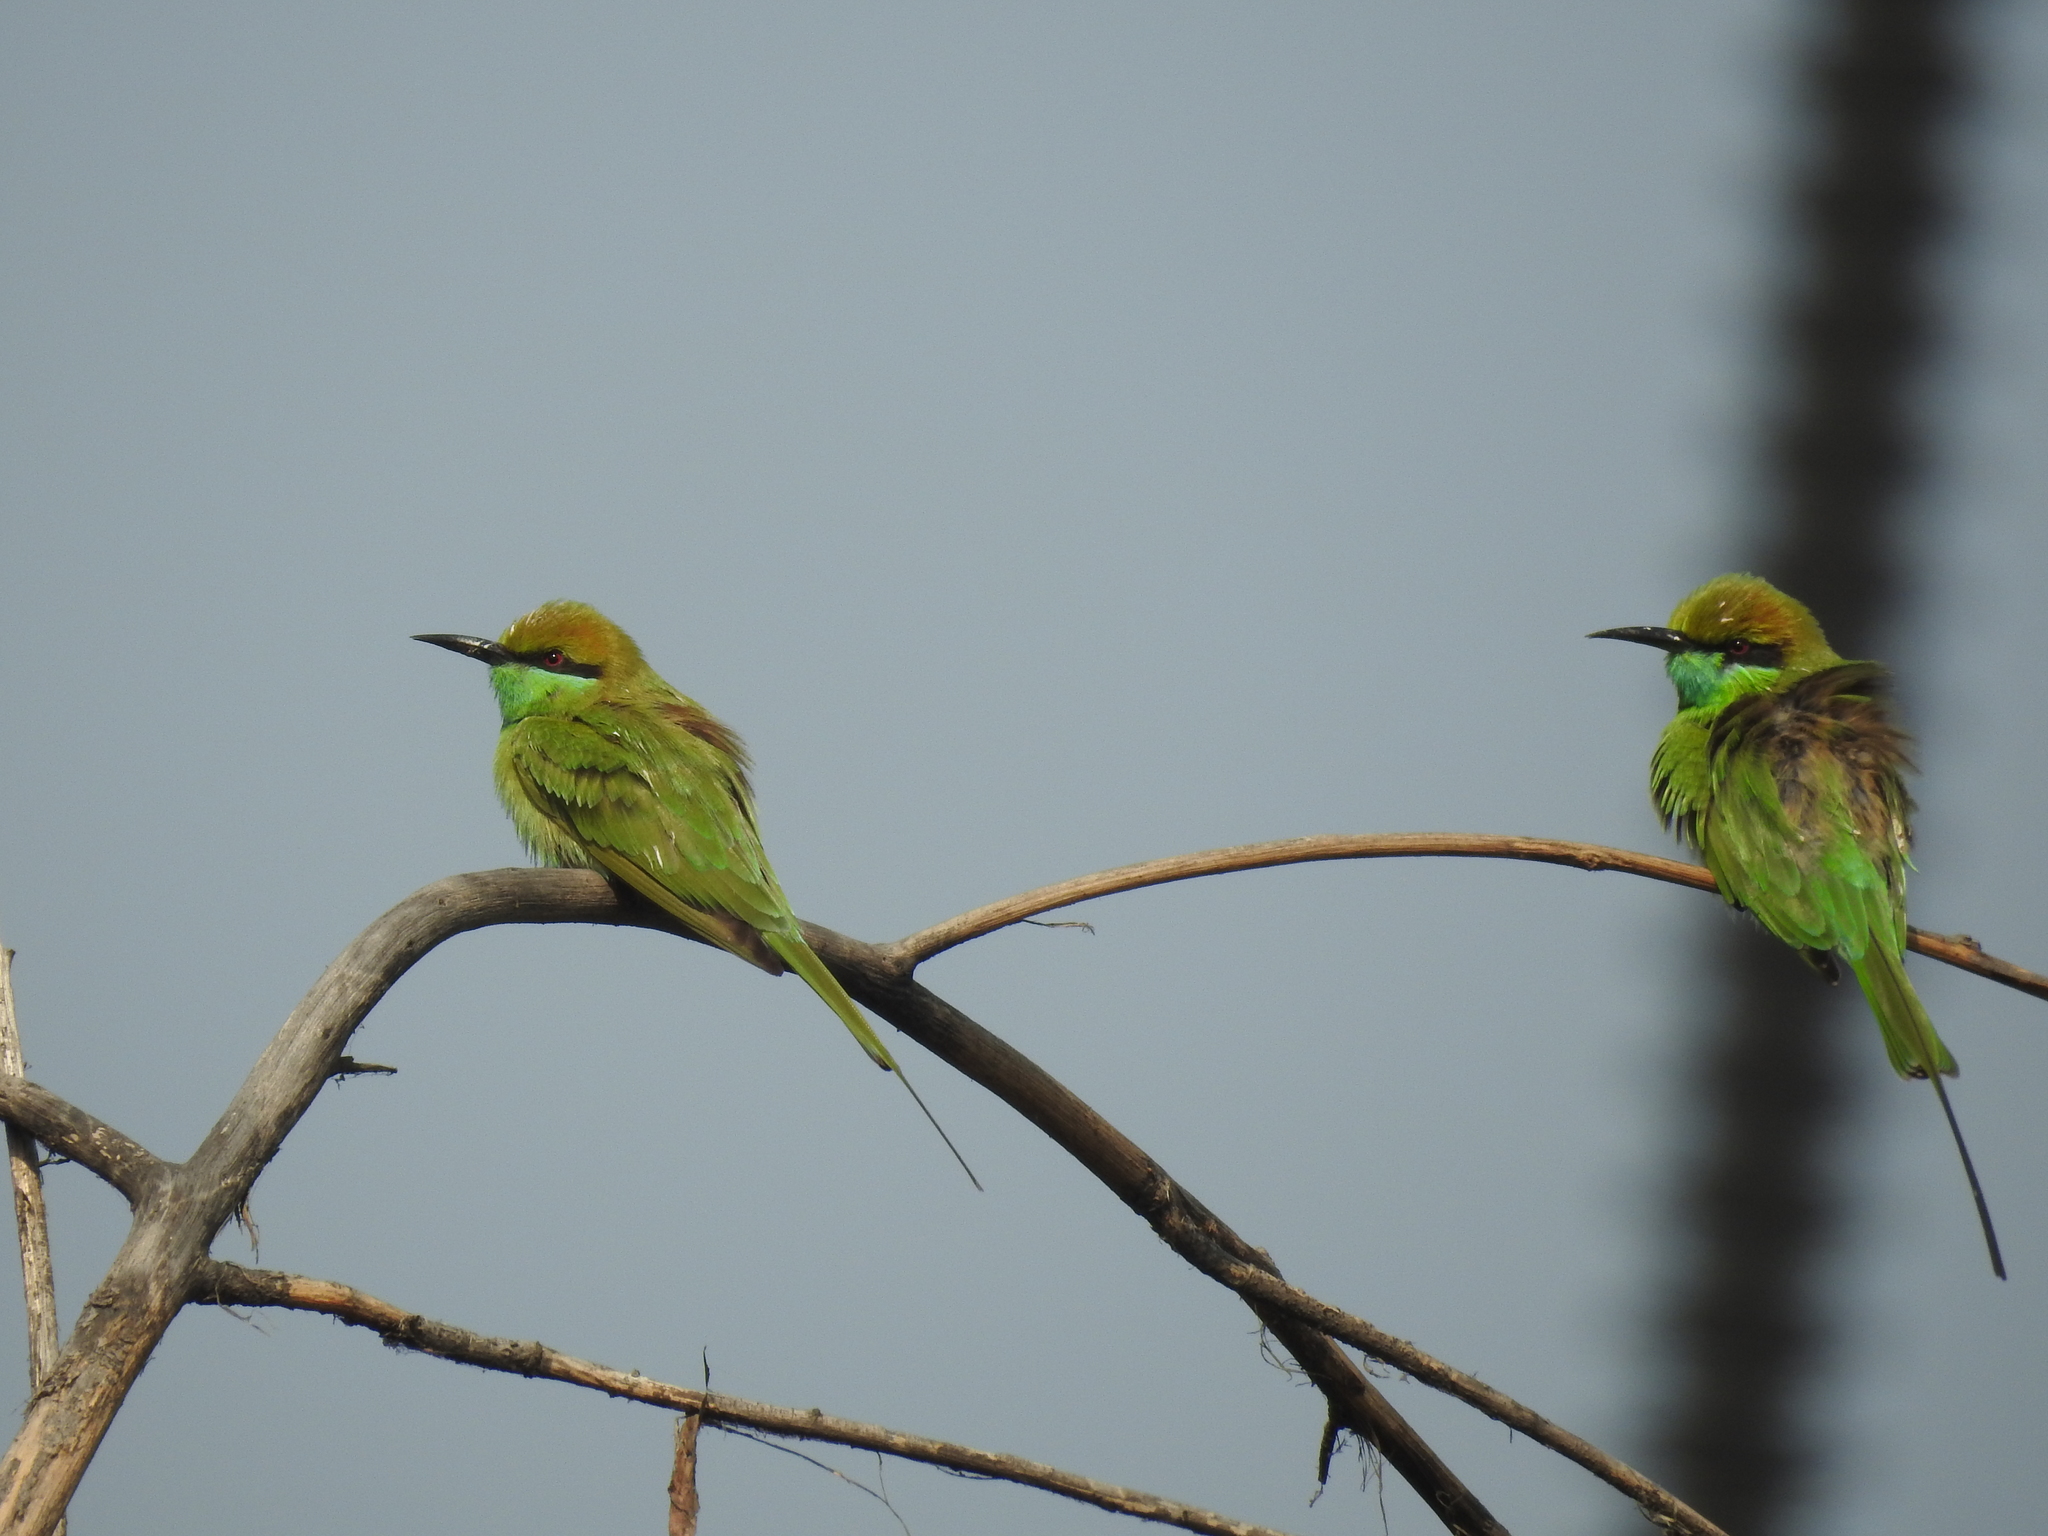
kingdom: Animalia
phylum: Chordata
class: Aves
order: Coraciiformes
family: Meropidae
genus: Merops
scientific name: Merops orientalis
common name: Green bee-eater
